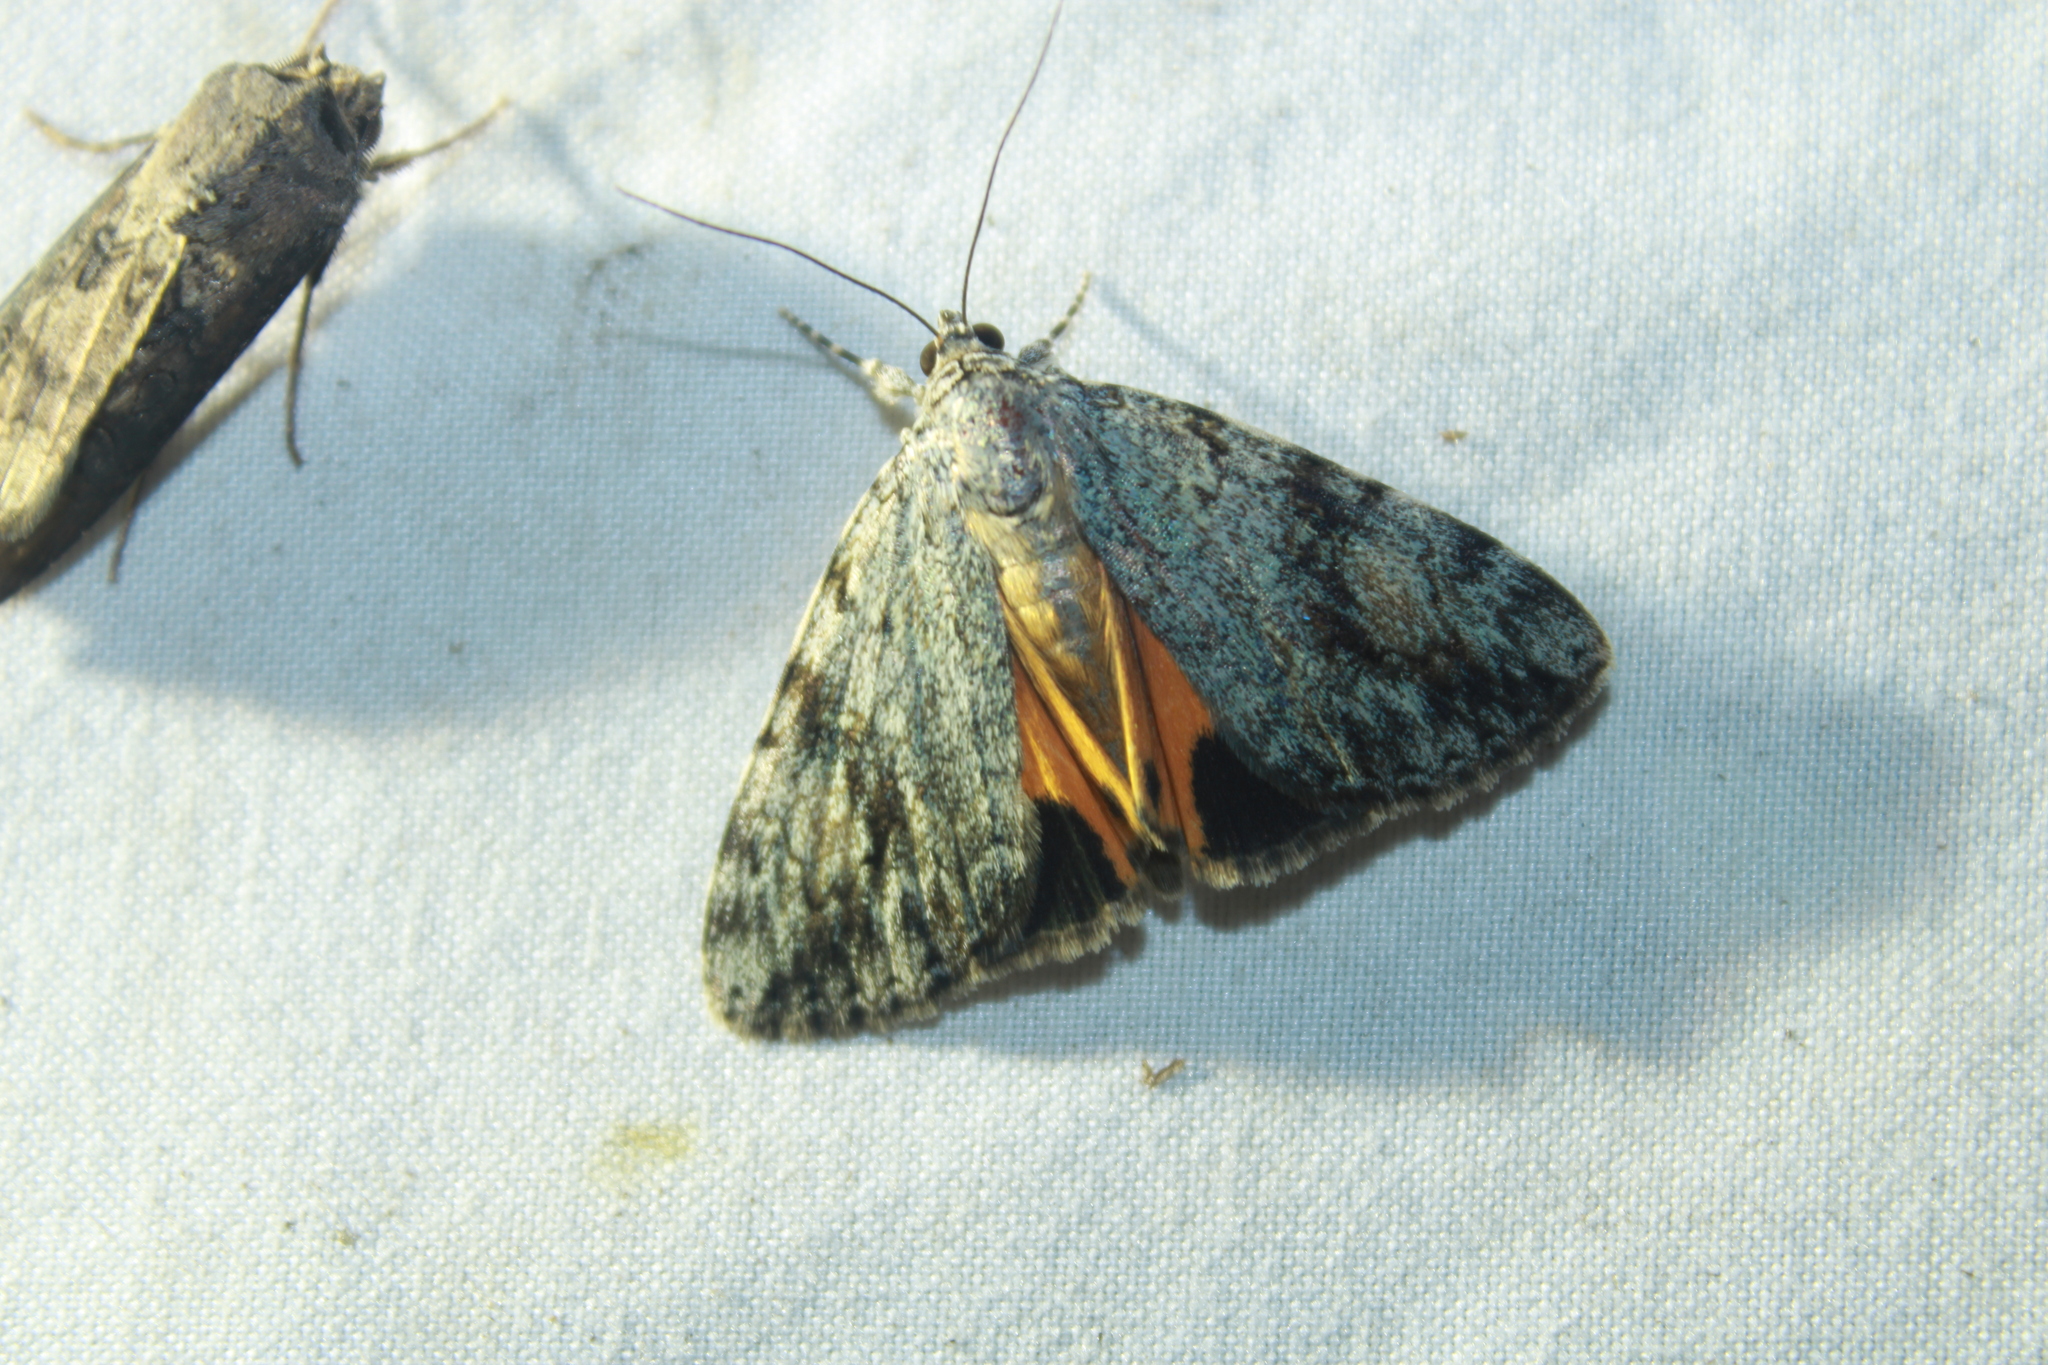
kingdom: Animalia
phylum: Arthropoda
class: Insecta
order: Lepidoptera
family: Erebidae
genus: Catocala
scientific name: Catocala amica
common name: Girlfriend underwing
